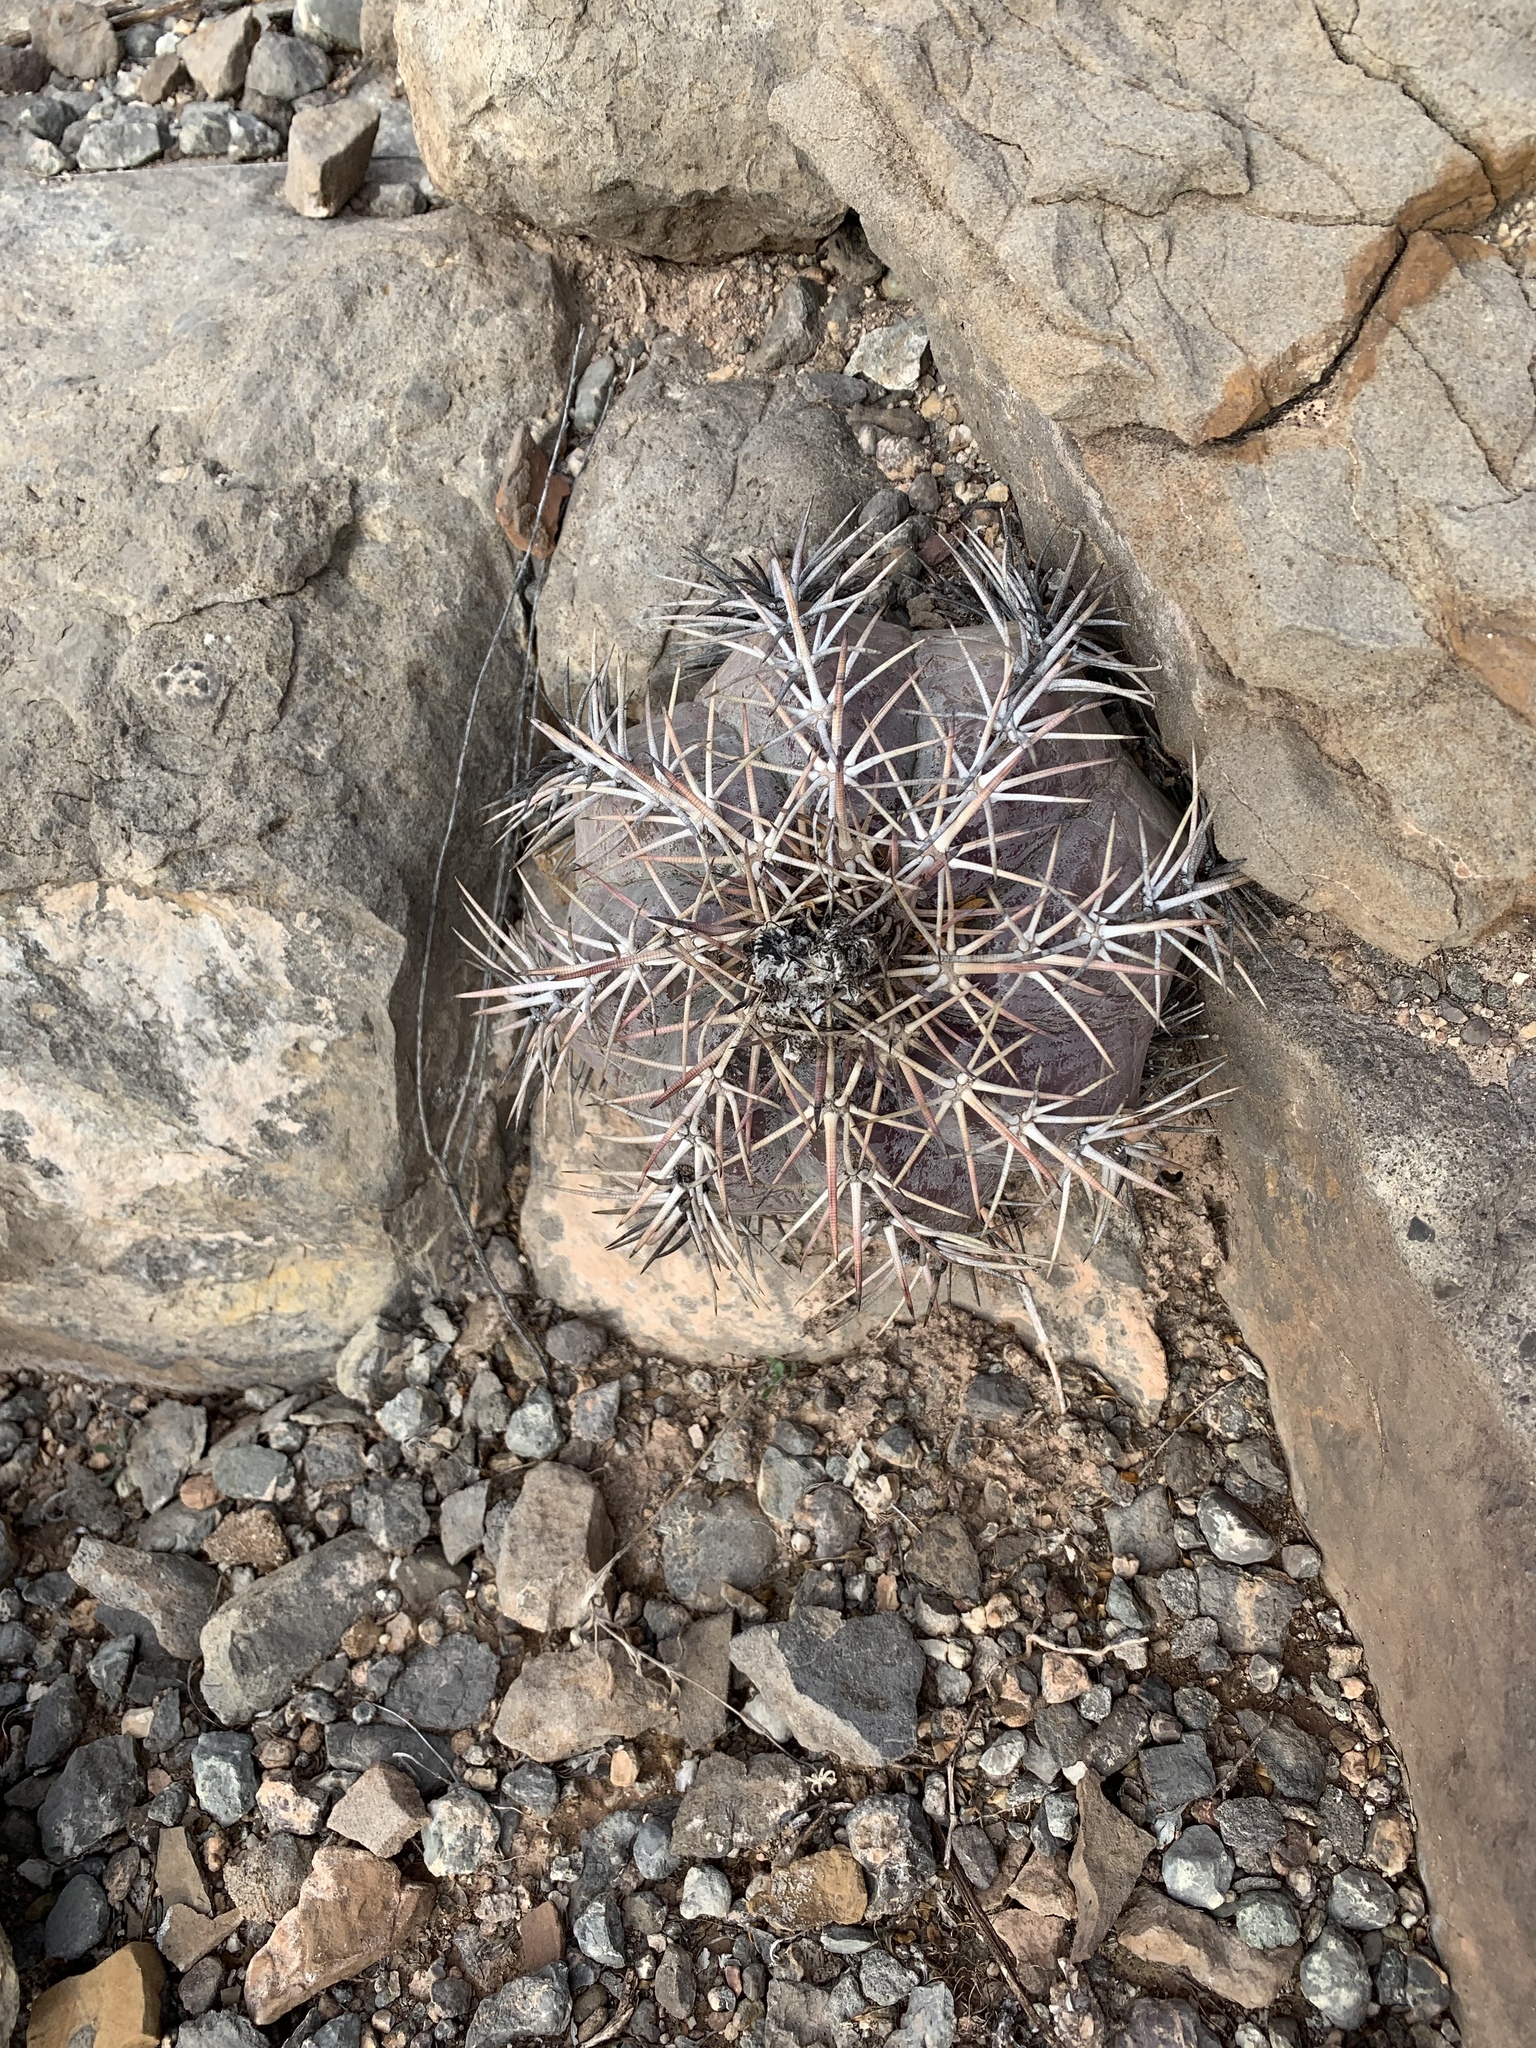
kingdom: Plantae
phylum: Tracheophyta
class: Magnoliopsida
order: Caryophyllales
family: Cactaceae
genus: Echinocactus
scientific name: Echinocactus horizonthalonius
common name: Devilshead
